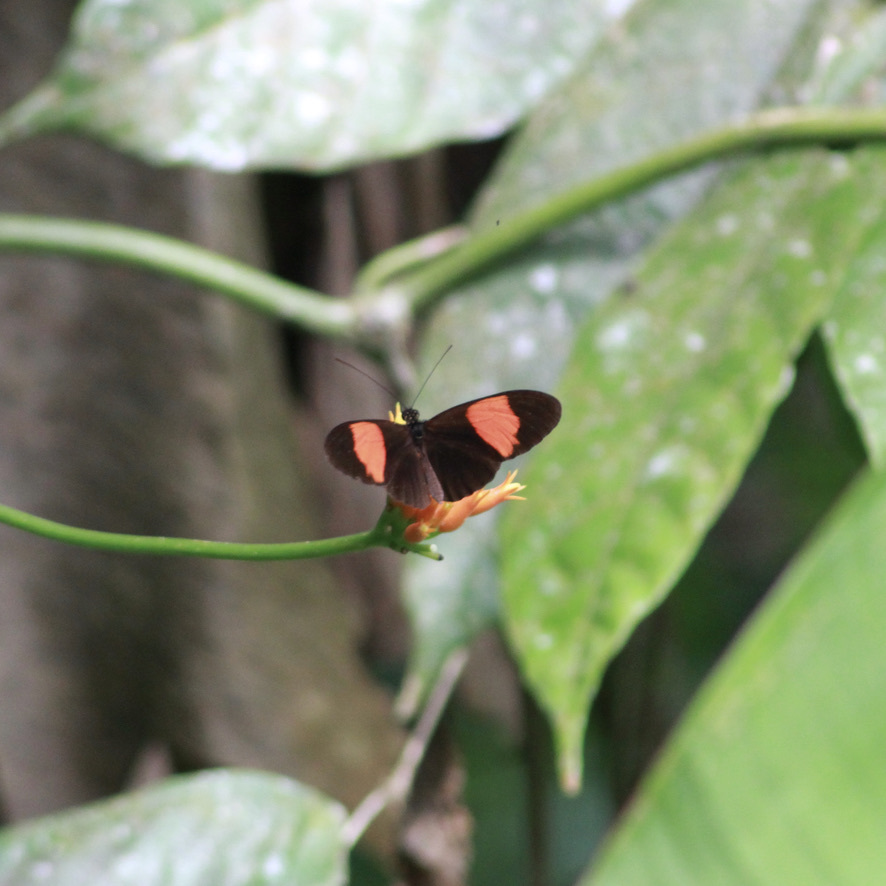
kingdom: Animalia
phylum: Arthropoda
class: Insecta
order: Lepidoptera
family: Nymphalidae
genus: Heliconius
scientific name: Heliconius melpomene
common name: Postman
